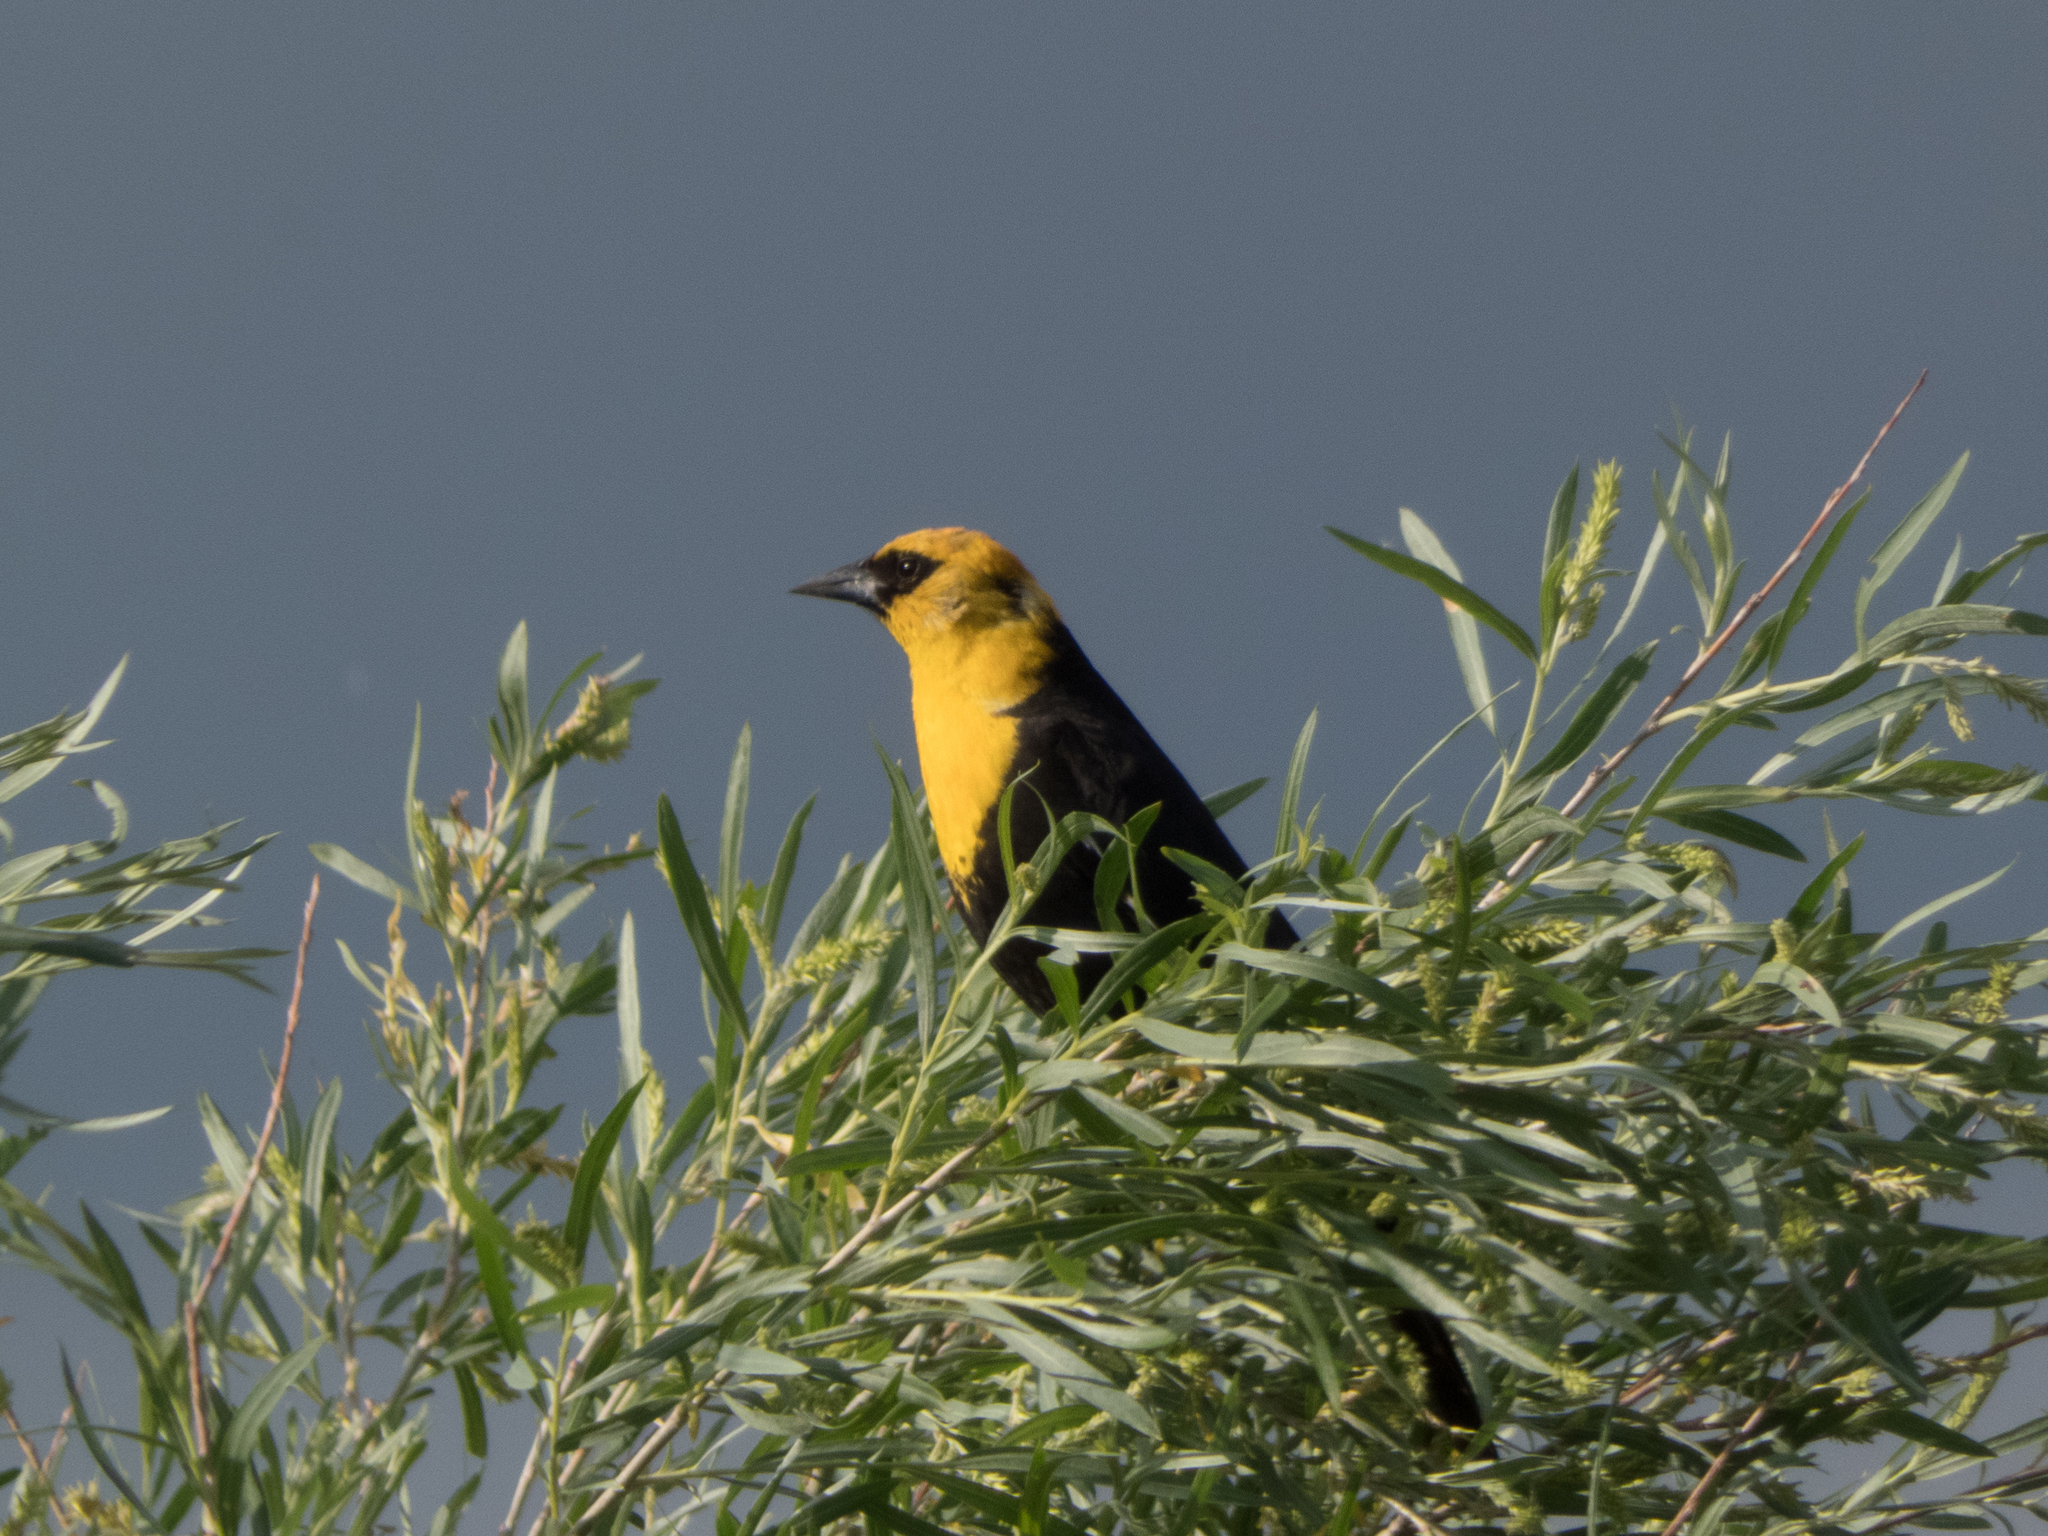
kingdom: Animalia
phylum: Chordata
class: Aves
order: Passeriformes
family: Icteridae
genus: Xanthocephalus
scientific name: Xanthocephalus xanthocephalus
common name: Yellow-headed blackbird
